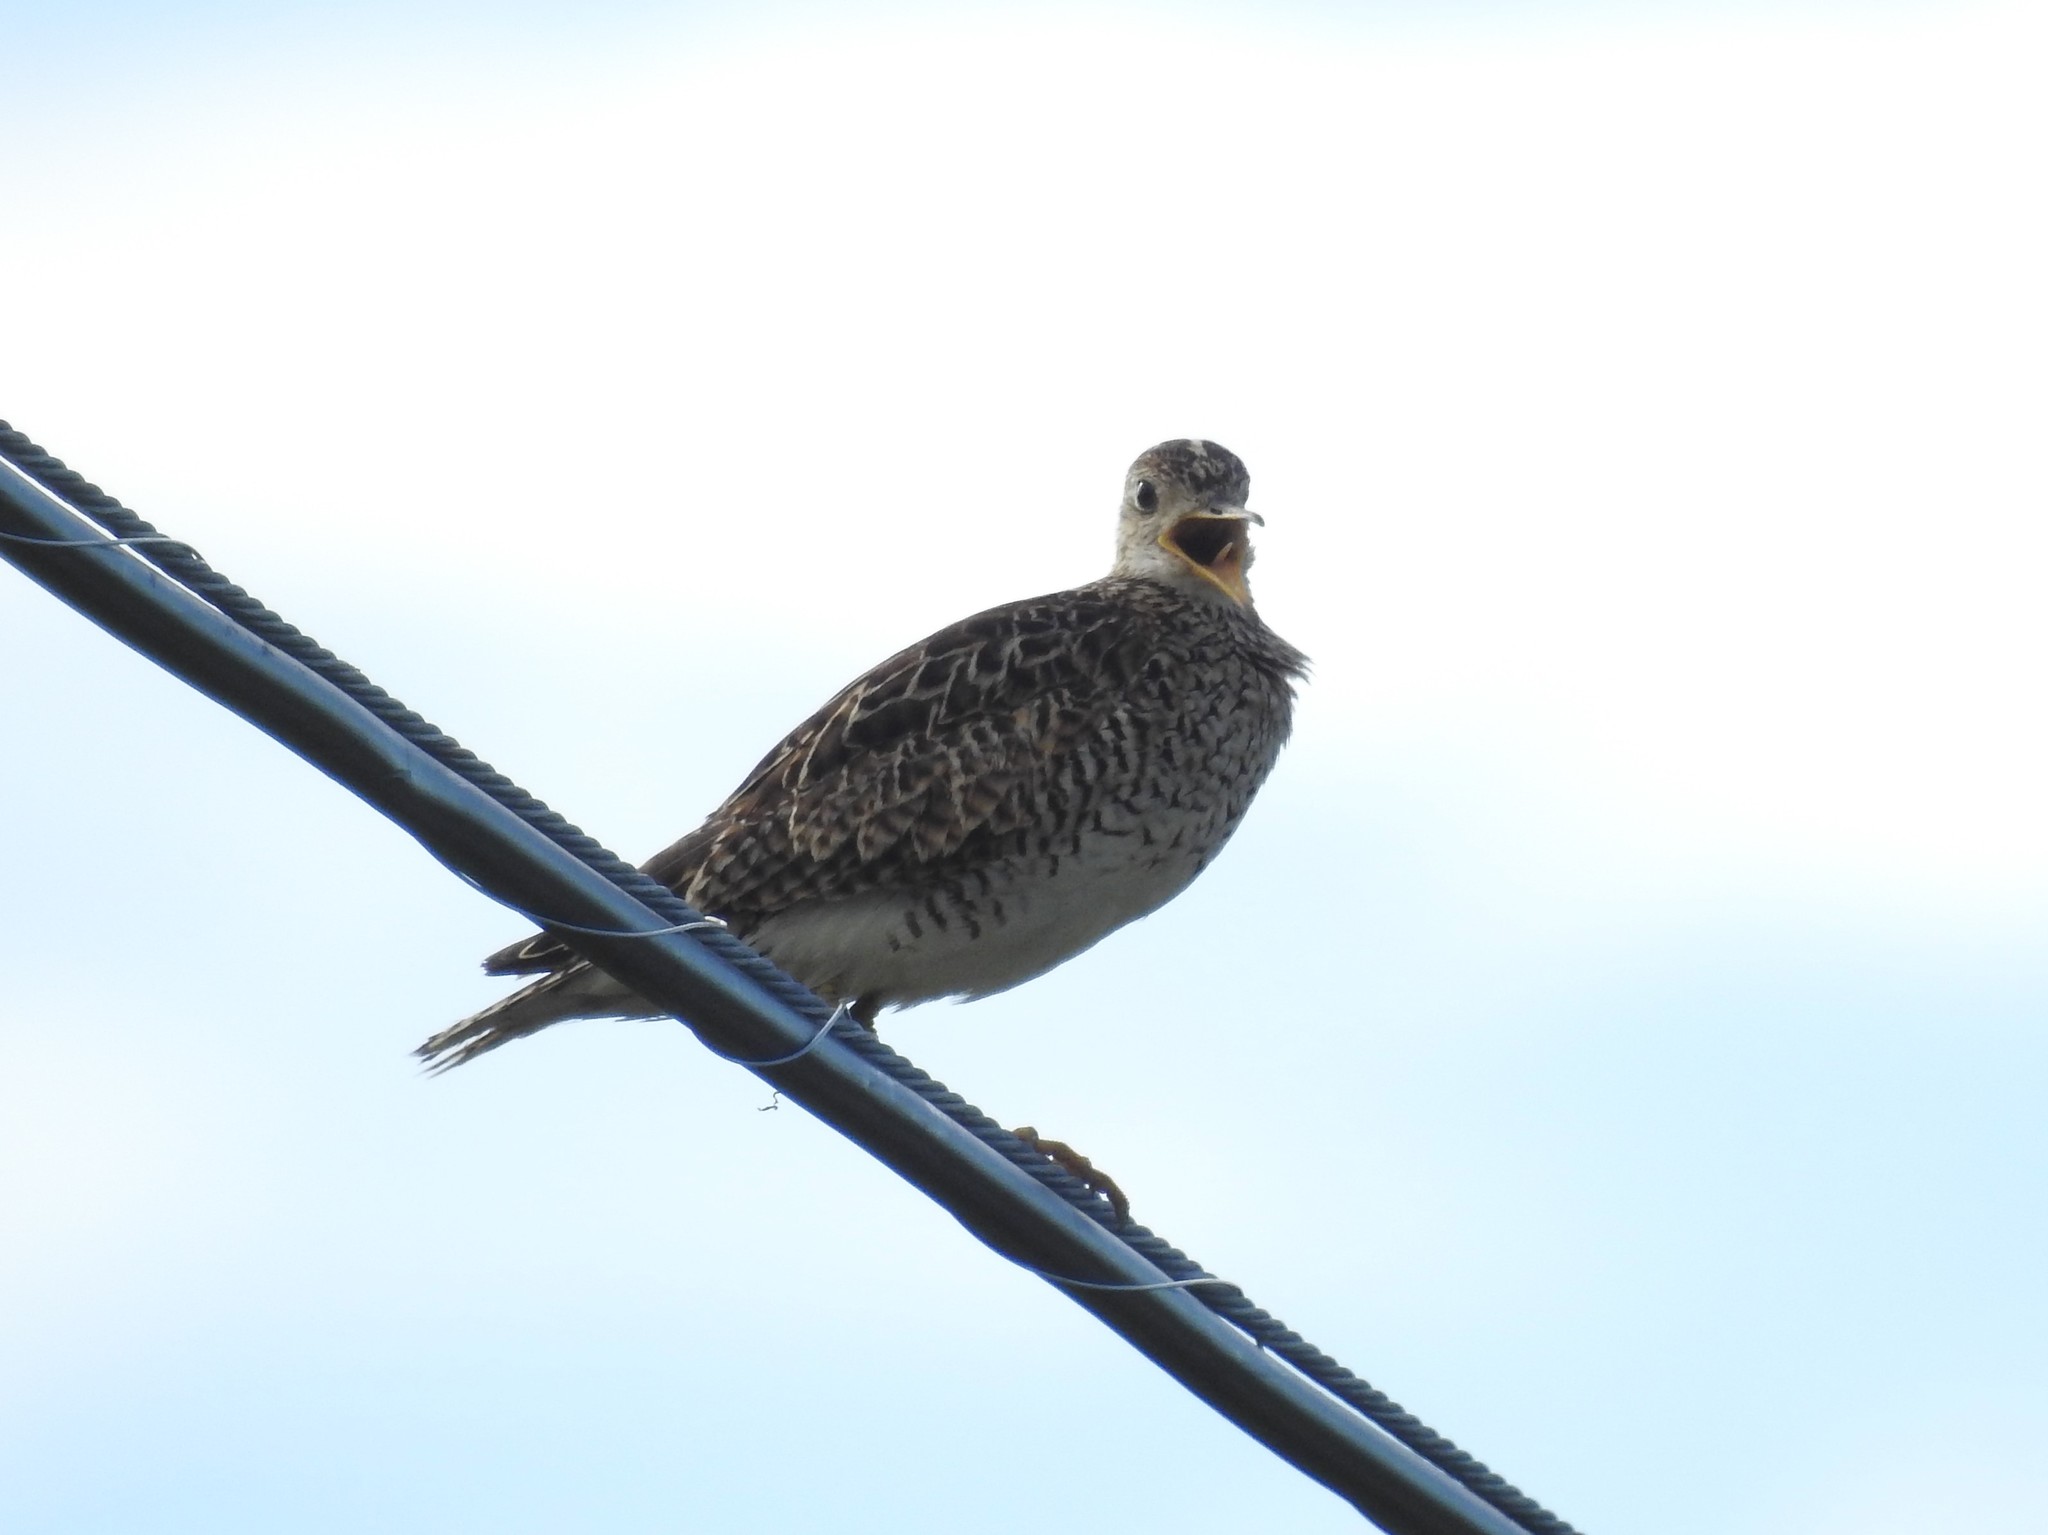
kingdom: Animalia
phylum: Chordata
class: Aves
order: Charadriiformes
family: Scolopacidae
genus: Bartramia
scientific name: Bartramia longicauda
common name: Upland sandpiper
